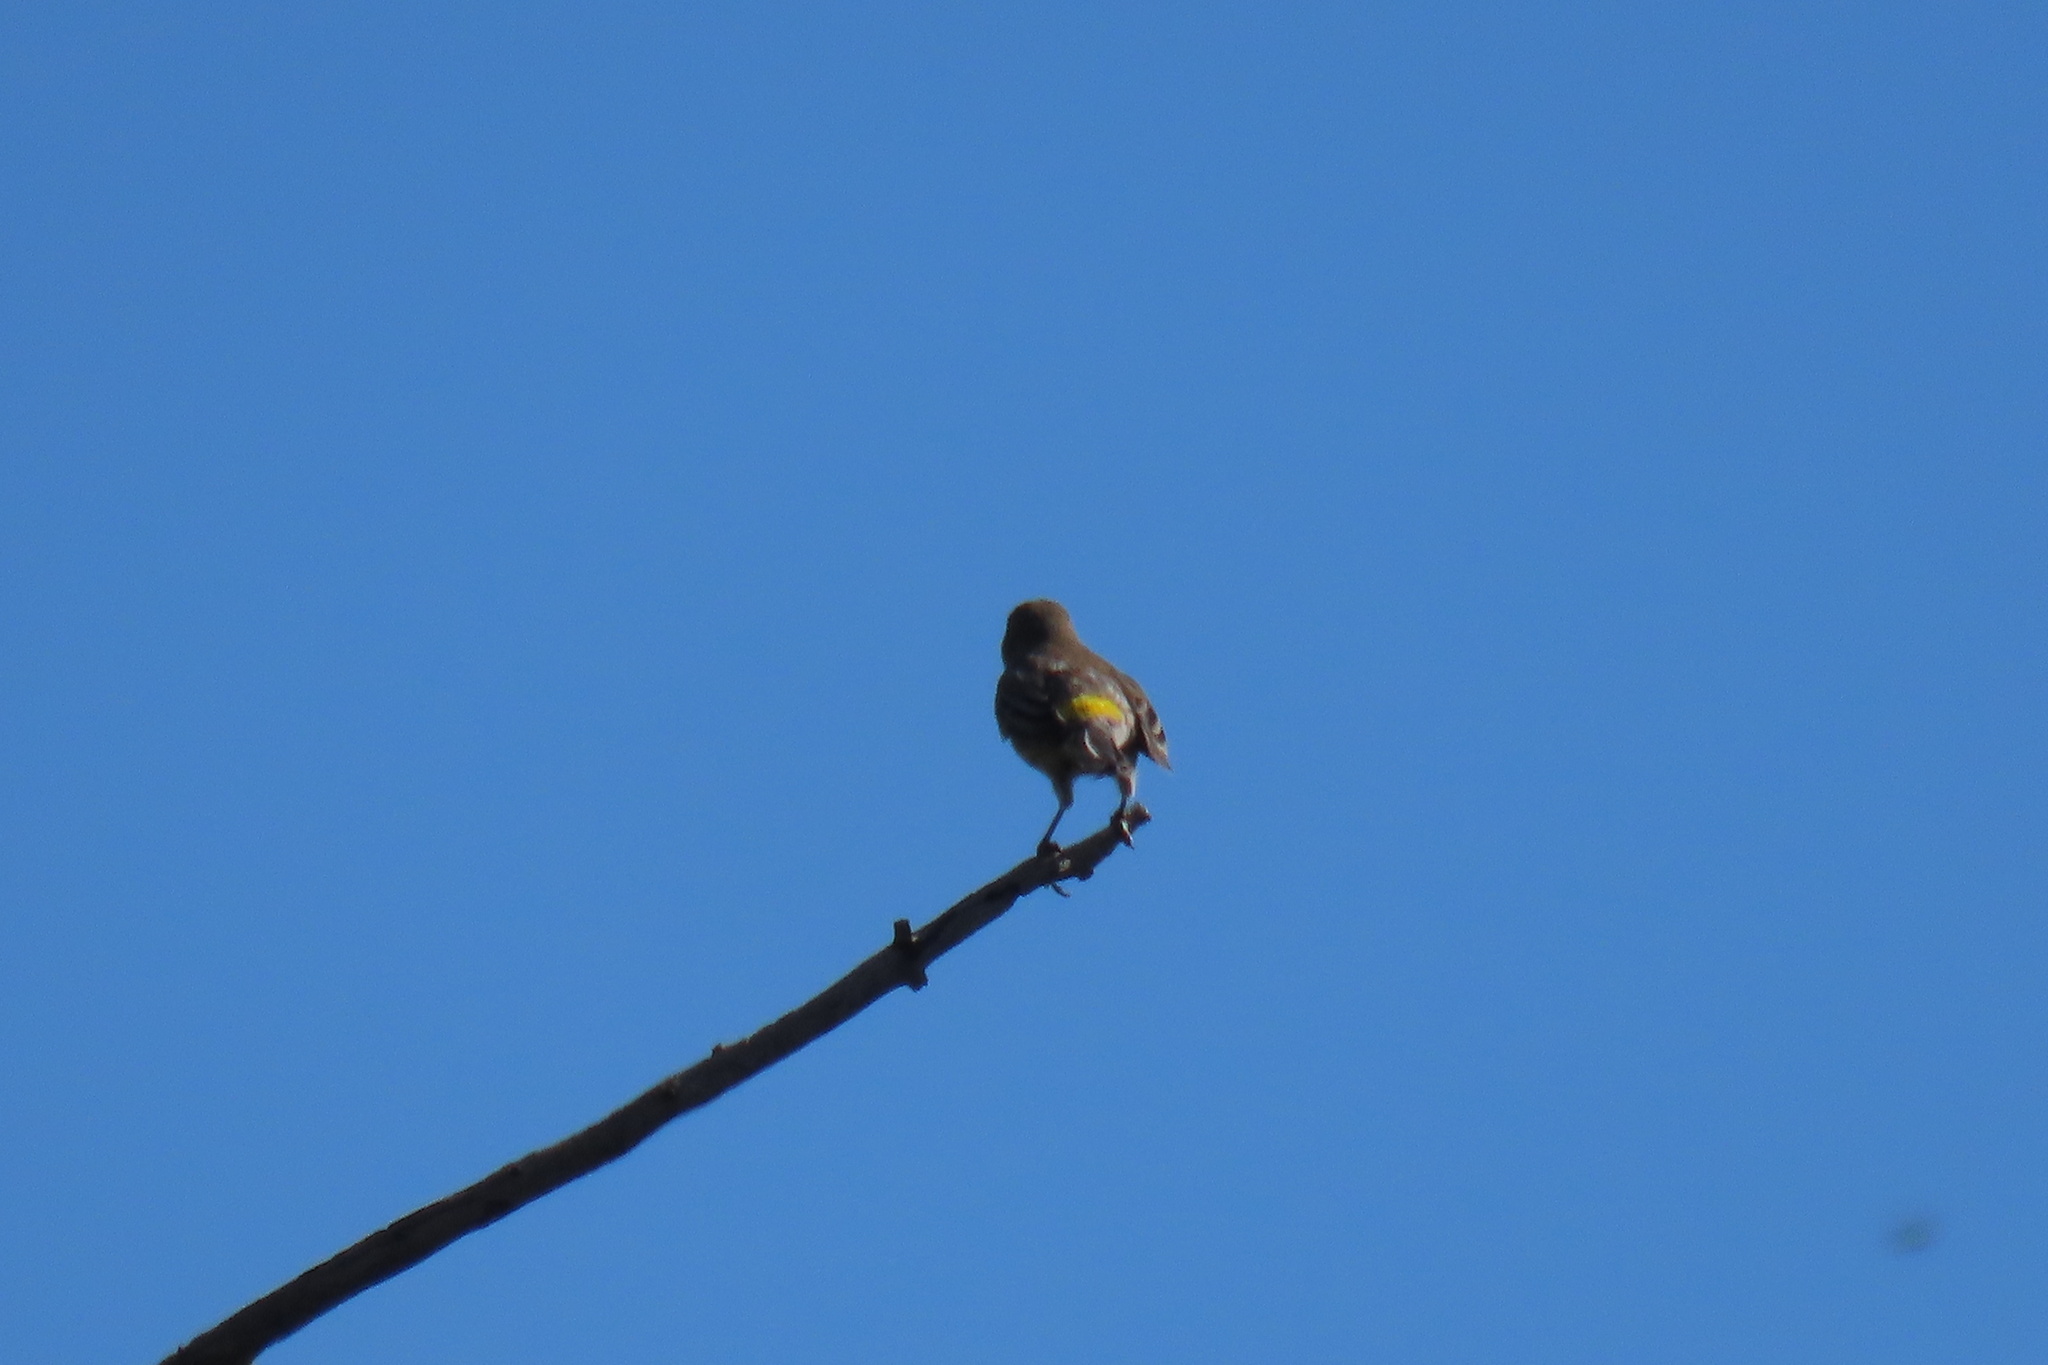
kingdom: Animalia
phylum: Chordata
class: Aves
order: Passeriformes
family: Parulidae
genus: Setophaga
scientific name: Setophaga coronata
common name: Myrtle warbler
